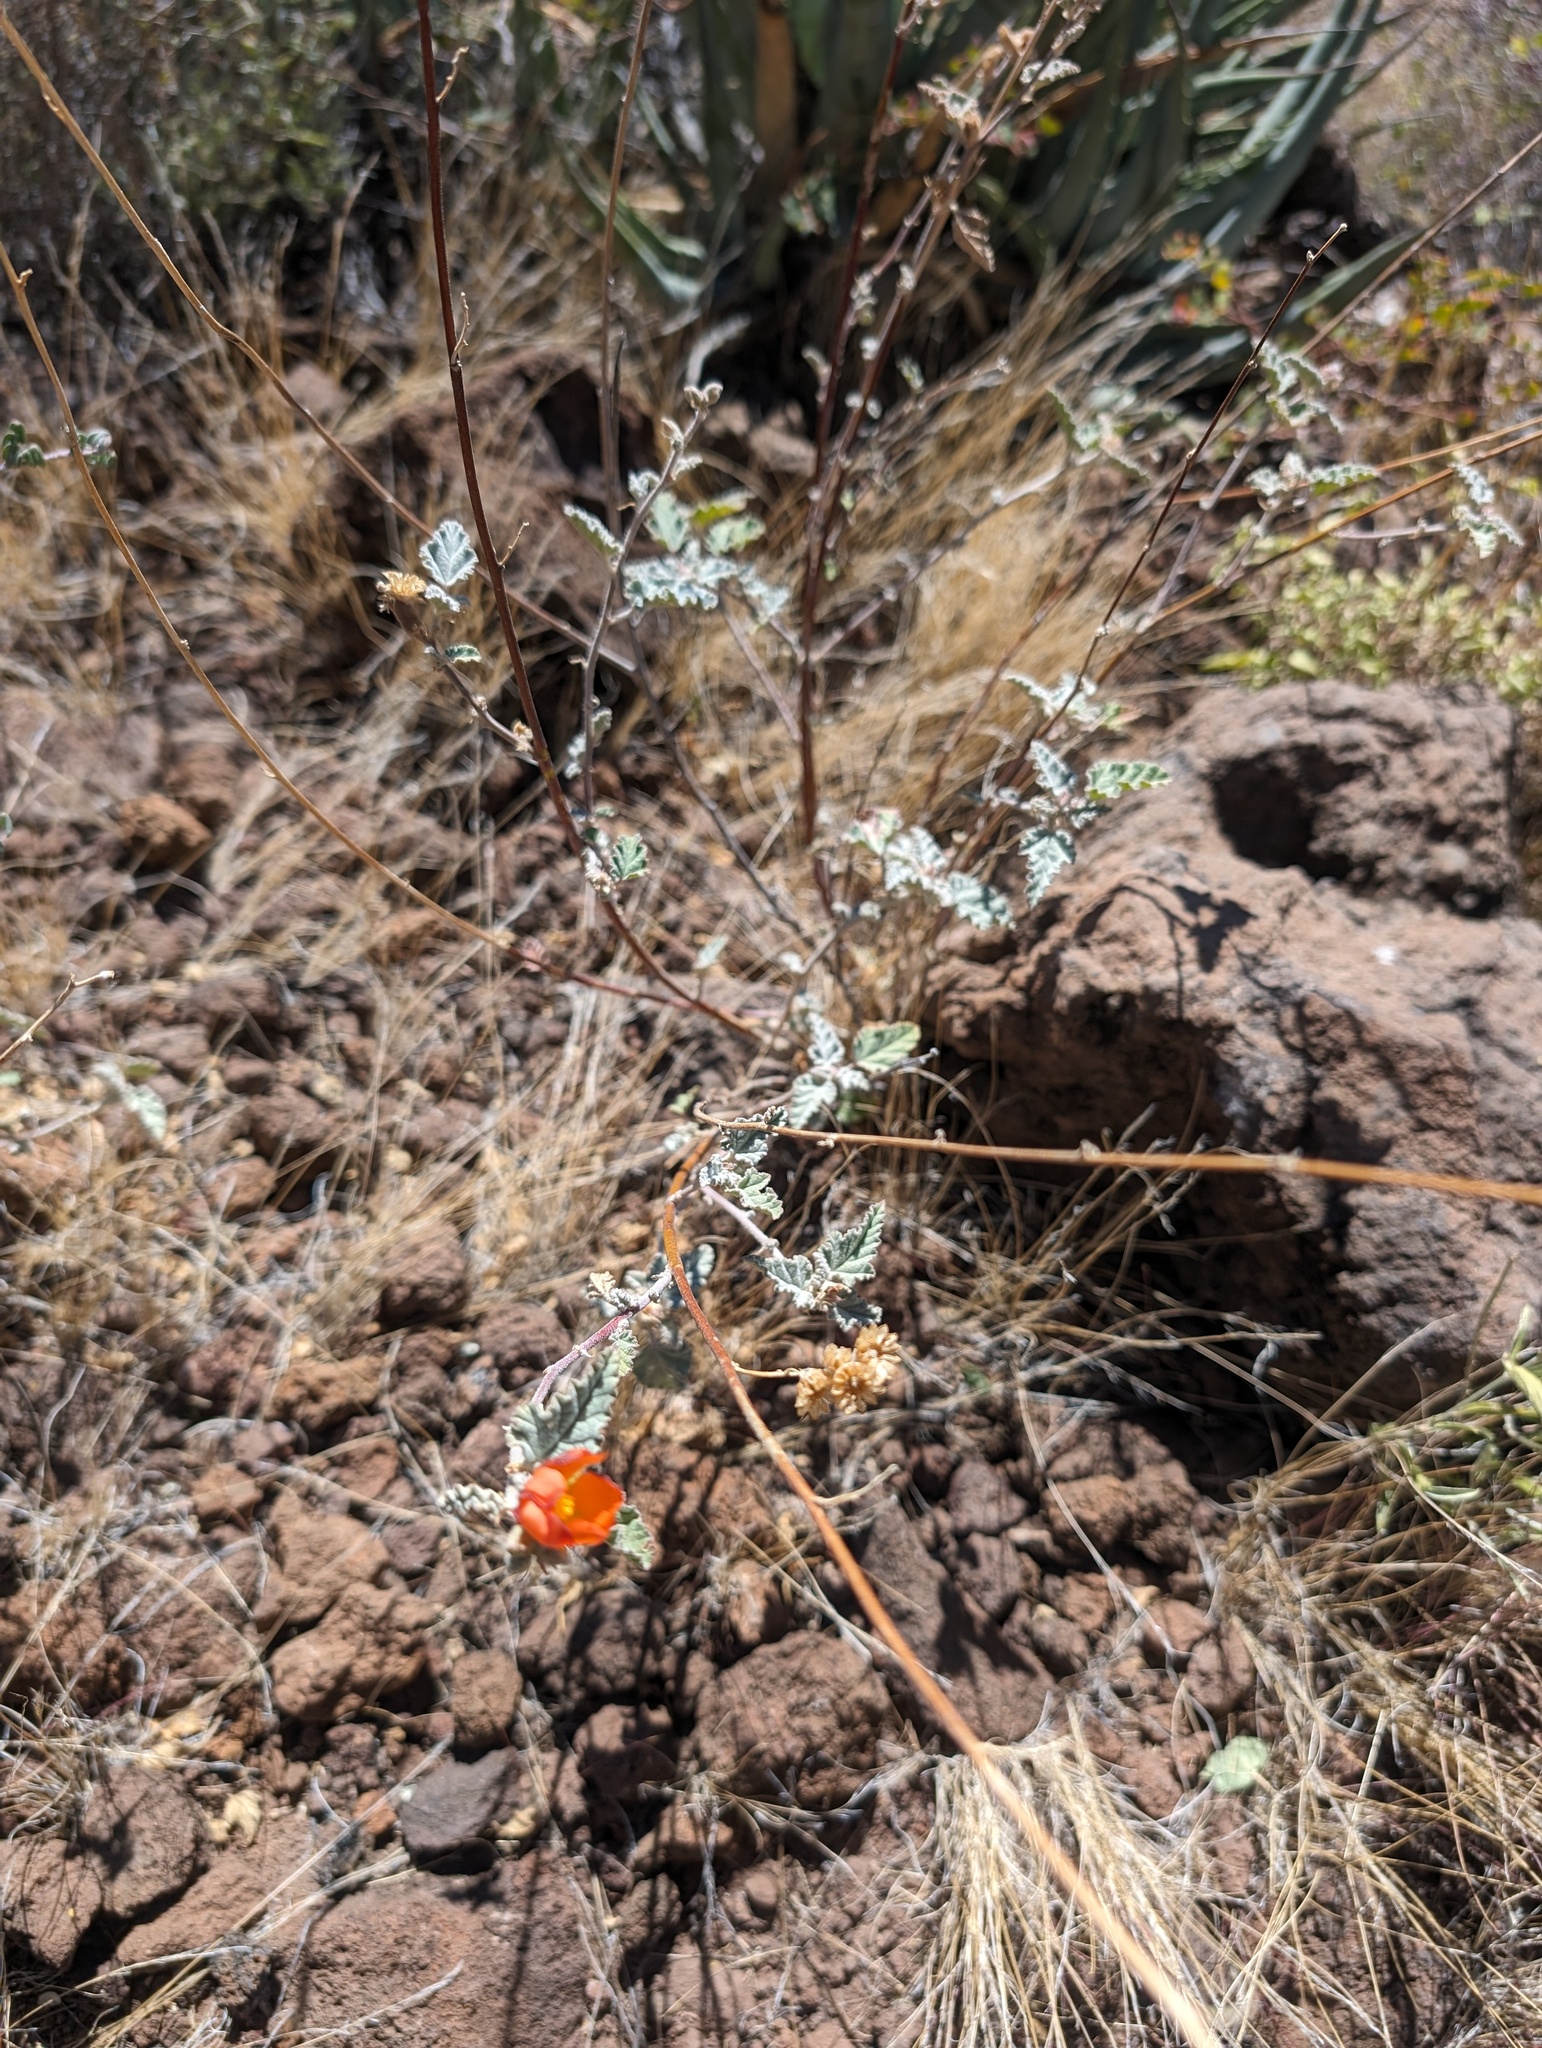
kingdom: Plantae
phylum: Tracheophyta
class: Magnoliopsida
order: Malvales
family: Malvaceae
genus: Sphaeralcea
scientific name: Sphaeralcea ambigua
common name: Apricot globe-mallow
